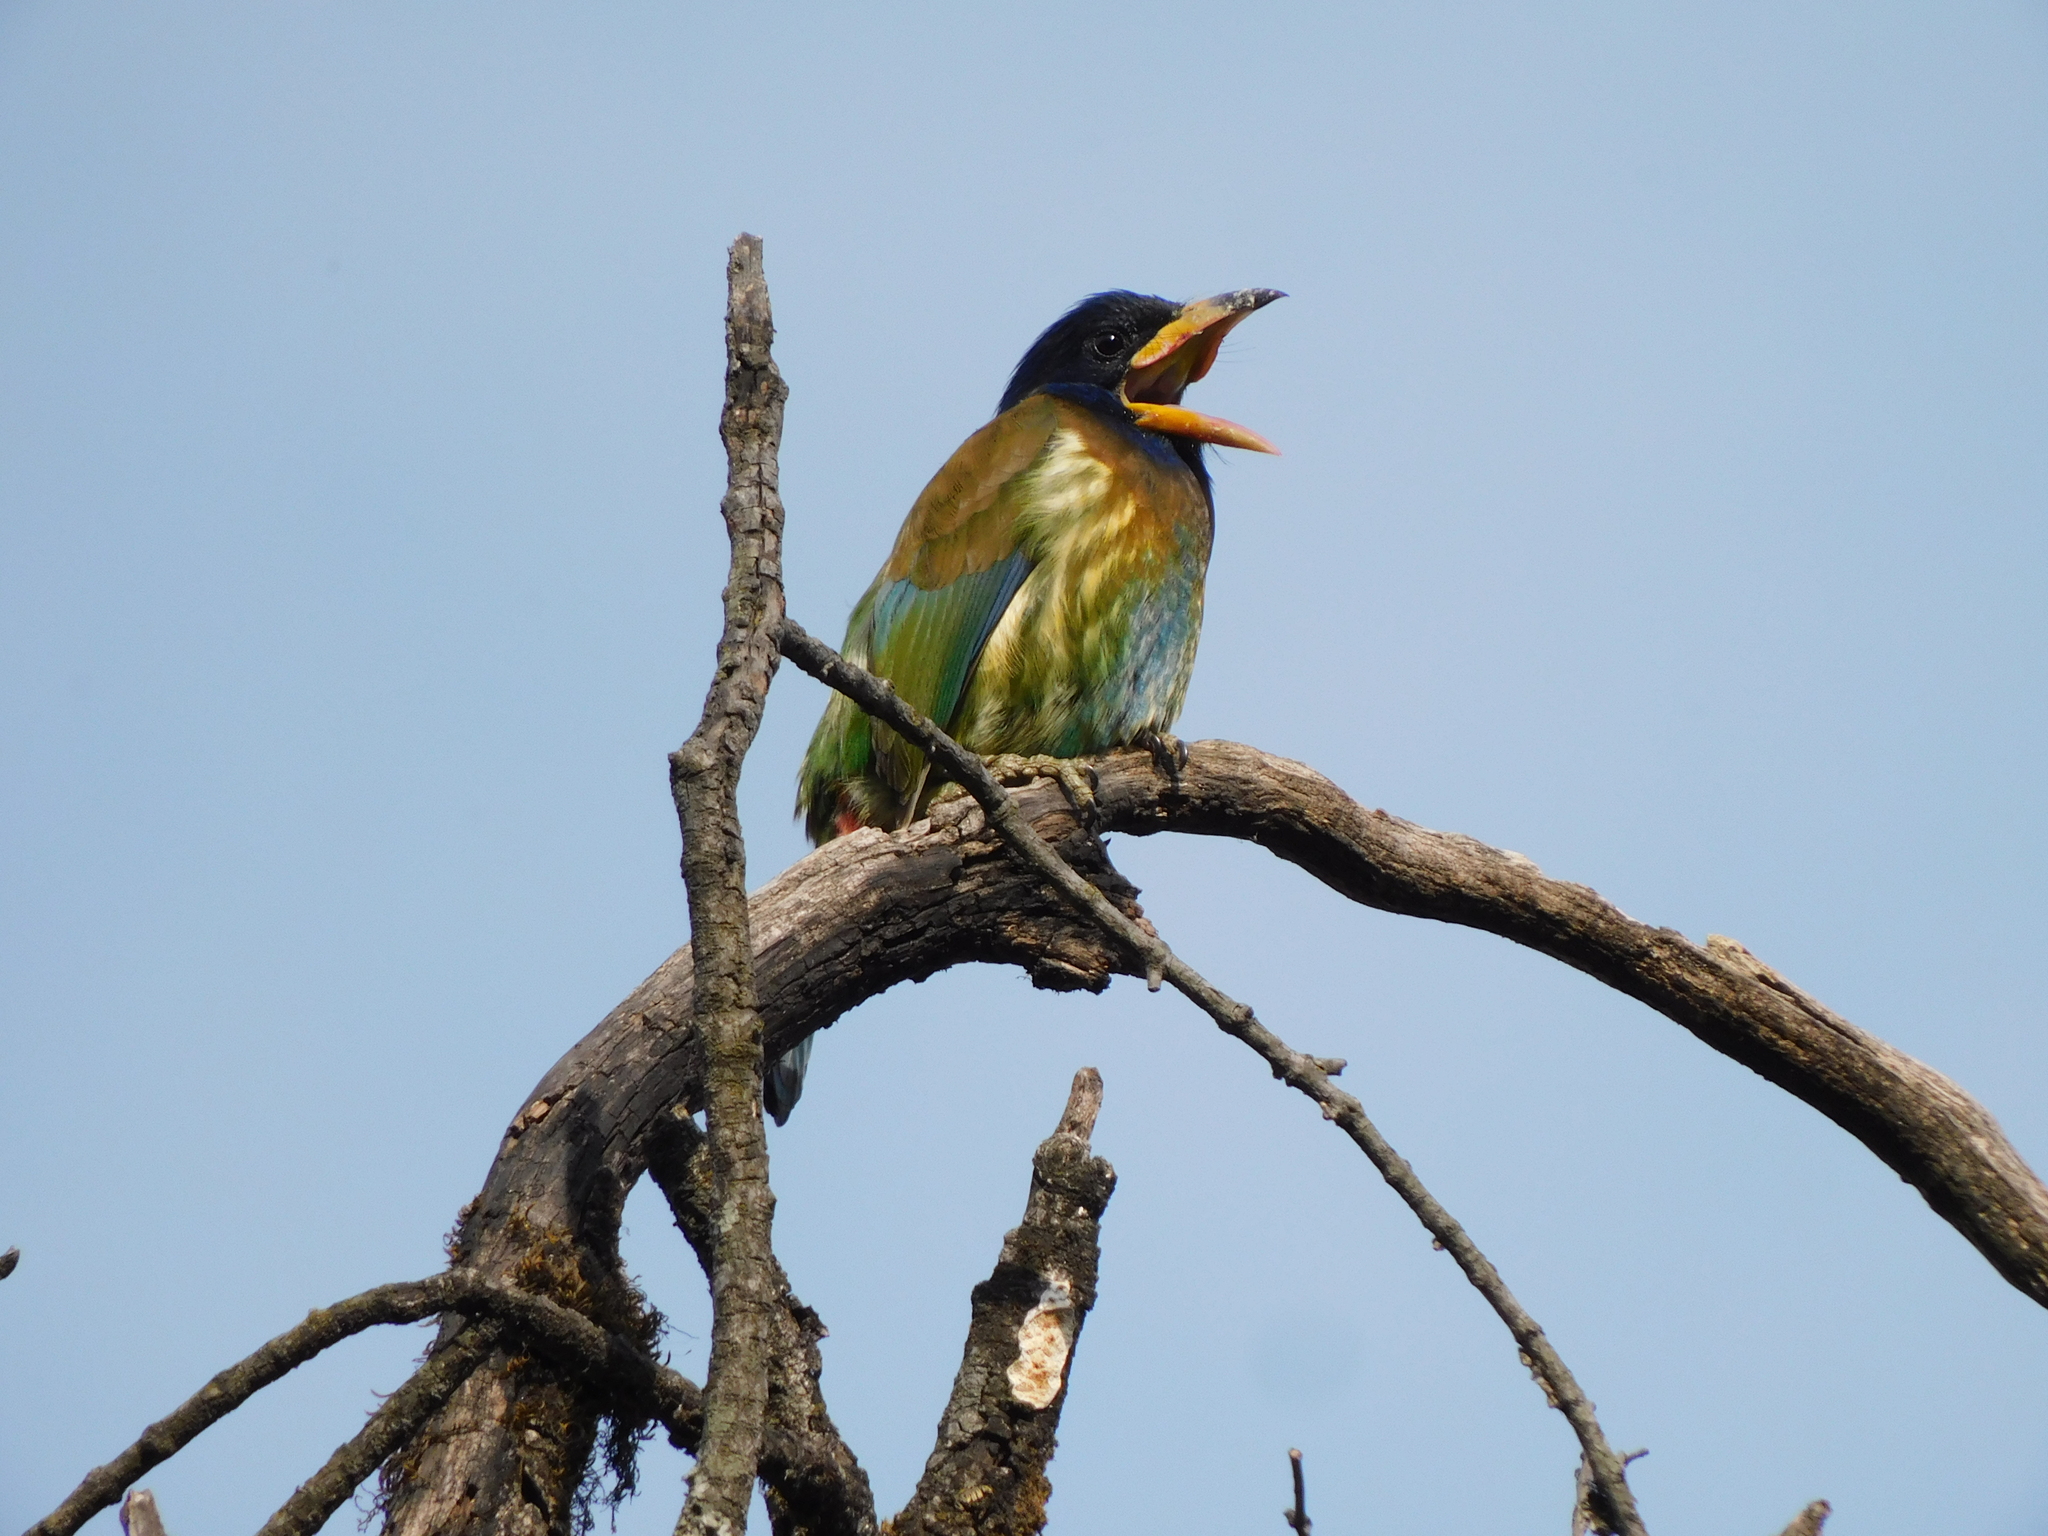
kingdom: Animalia
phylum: Chordata
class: Aves
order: Piciformes
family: Megalaimidae
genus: Psilopogon
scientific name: Psilopogon virens
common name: Great barbet
